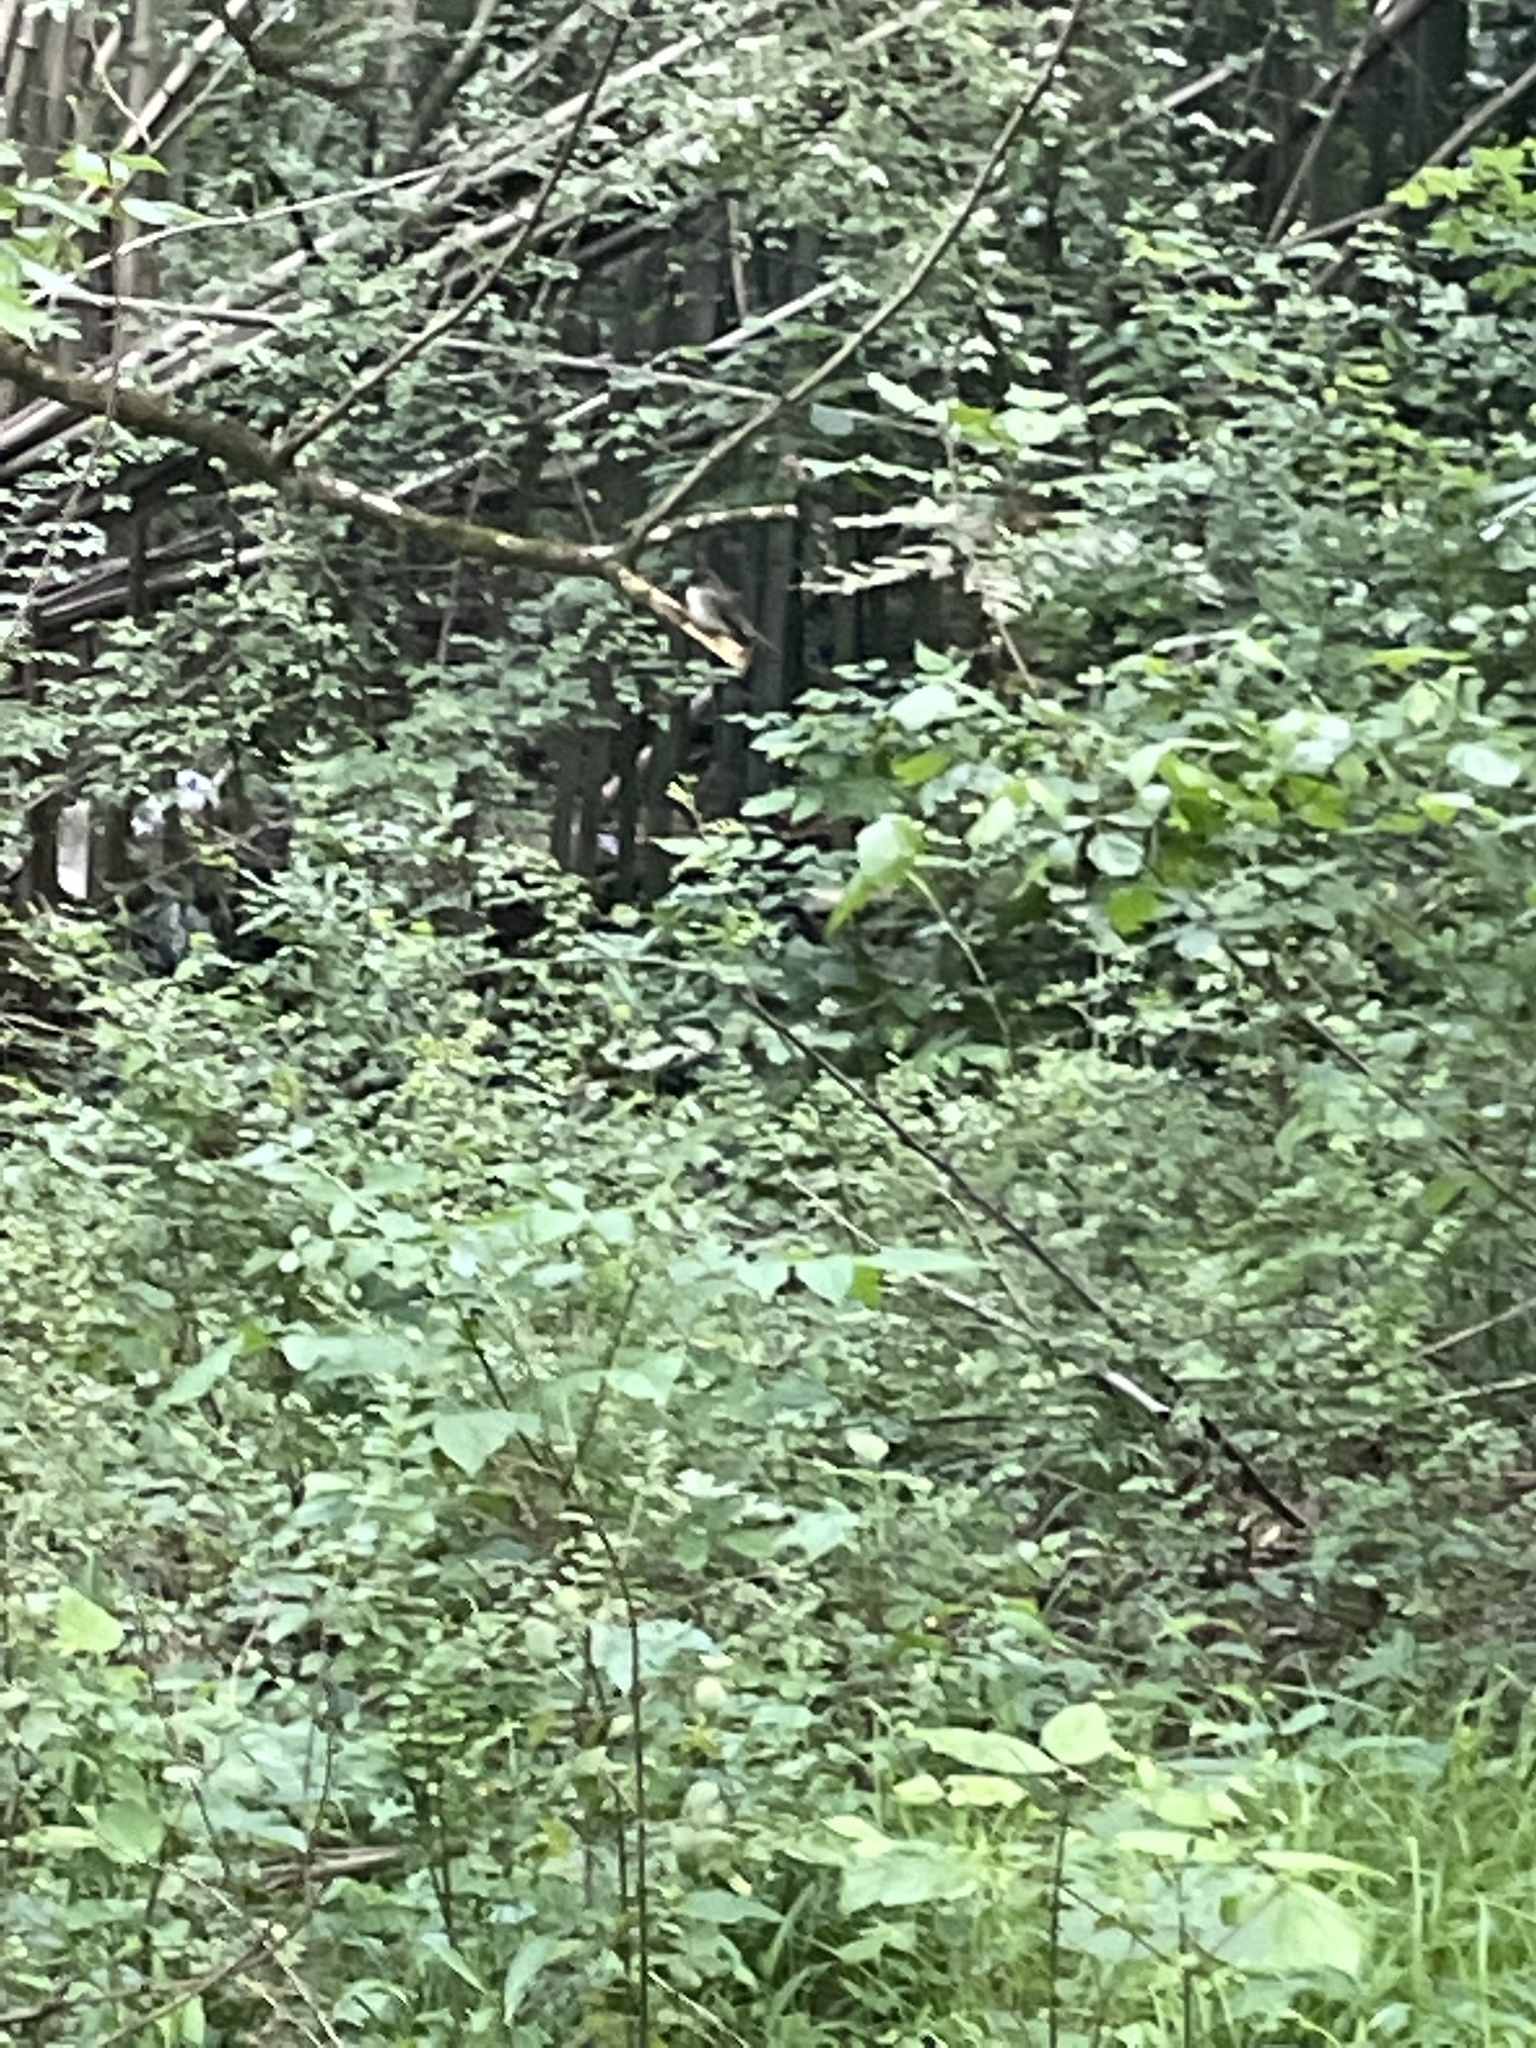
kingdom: Animalia
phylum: Chordata
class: Aves
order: Passeriformes
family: Tyrannidae
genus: Sayornis
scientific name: Sayornis phoebe
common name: Eastern phoebe
